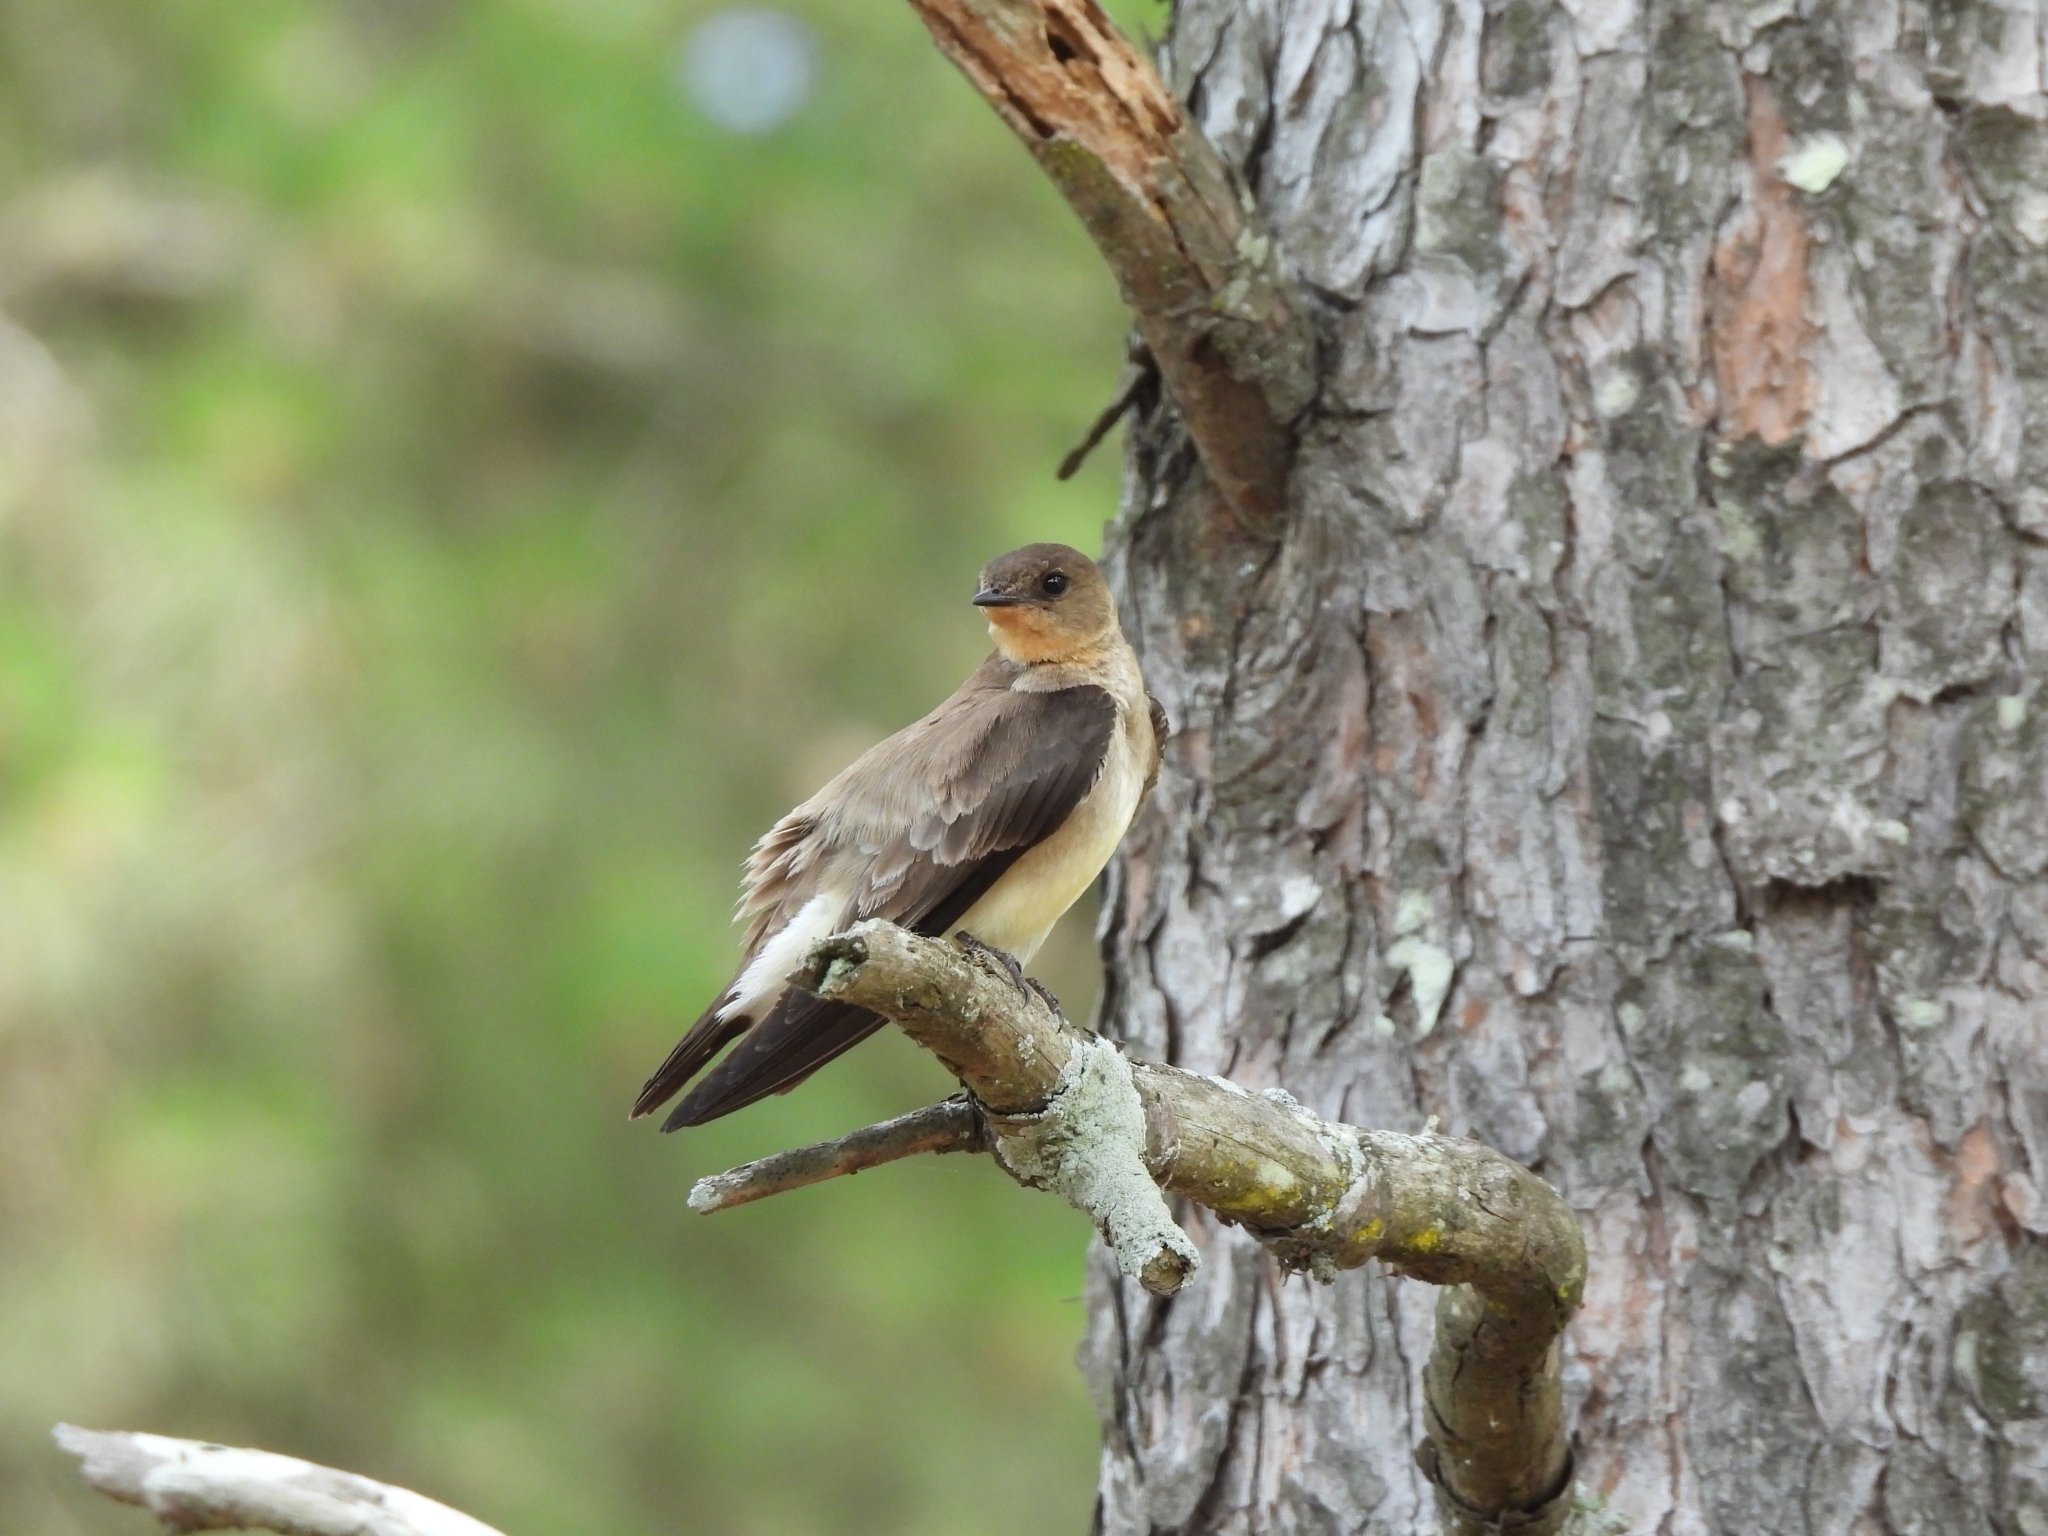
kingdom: Animalia
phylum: Chordata
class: Aves
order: Passeriformes
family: Hirundinidae
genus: Stelgidopteryx
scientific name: Stelgidopteryx ruficollis
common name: Southern rough-winged swallow
